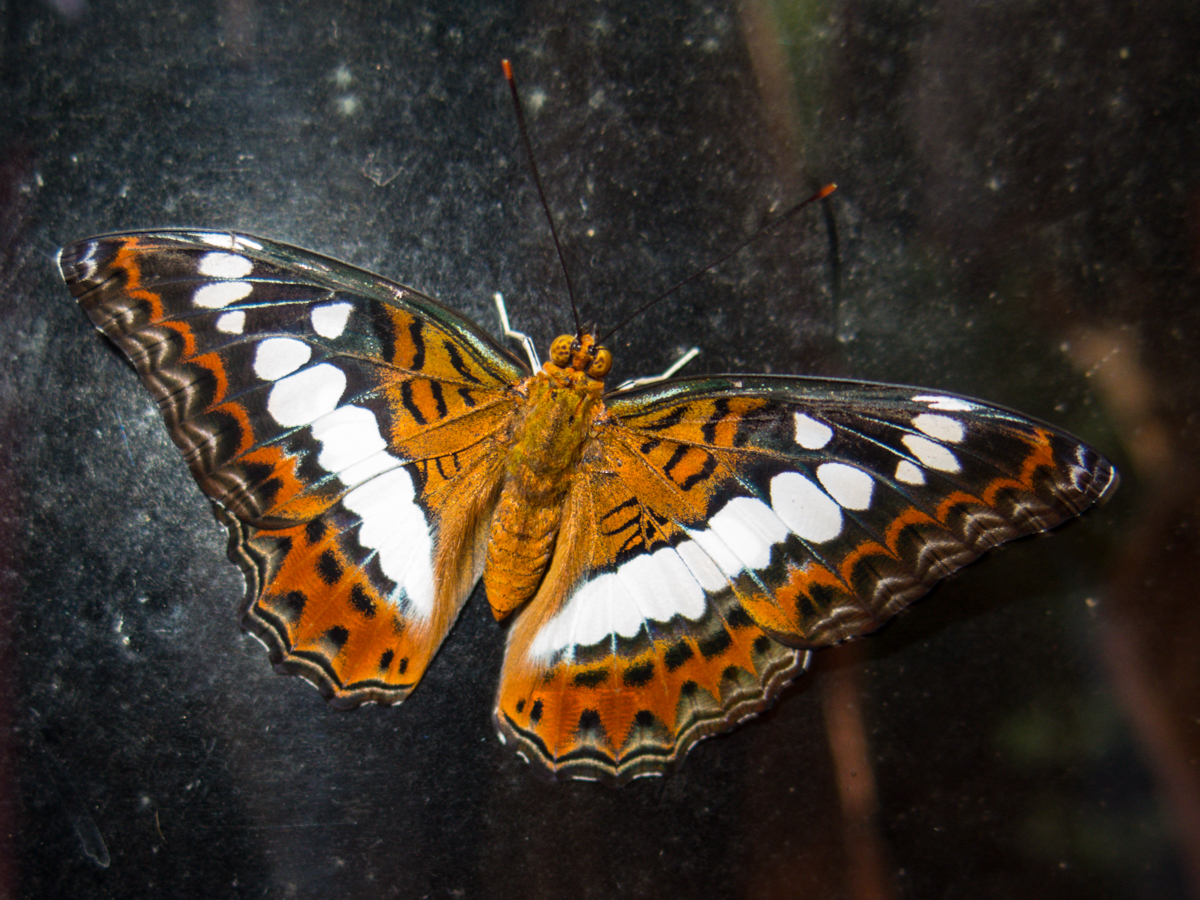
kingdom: Animalia
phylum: Arthropoda
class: Insecta
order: Lepidoptera
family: Nymphalidae
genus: Limenitis
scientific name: Limenitis Moduza procris
